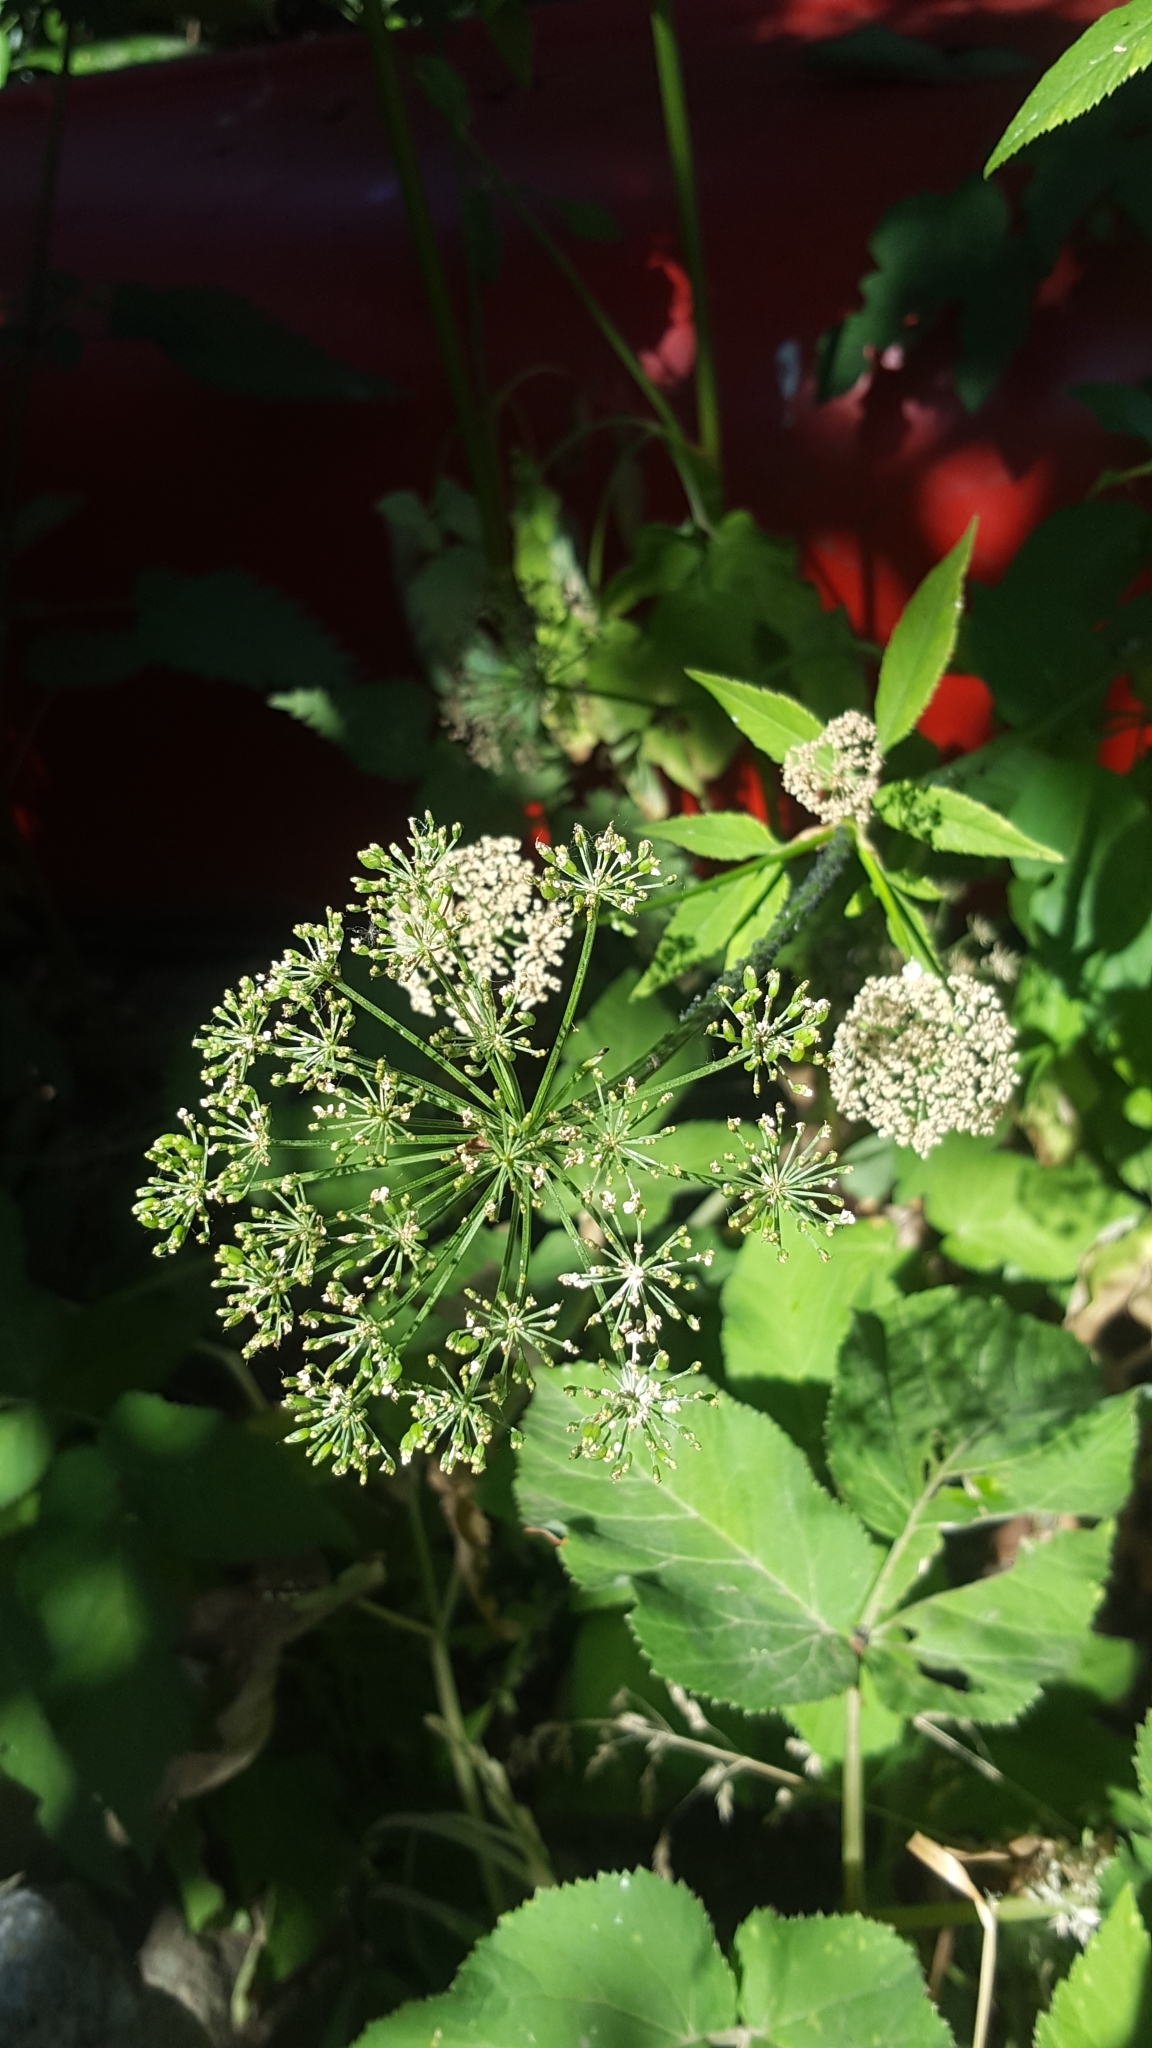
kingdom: Plantae
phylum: Tracheophyta
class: Magnoliopsida
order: Apiales
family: Apiaceae
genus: Aegopodium
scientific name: Aegopodium podagraria
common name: Ground-elder
